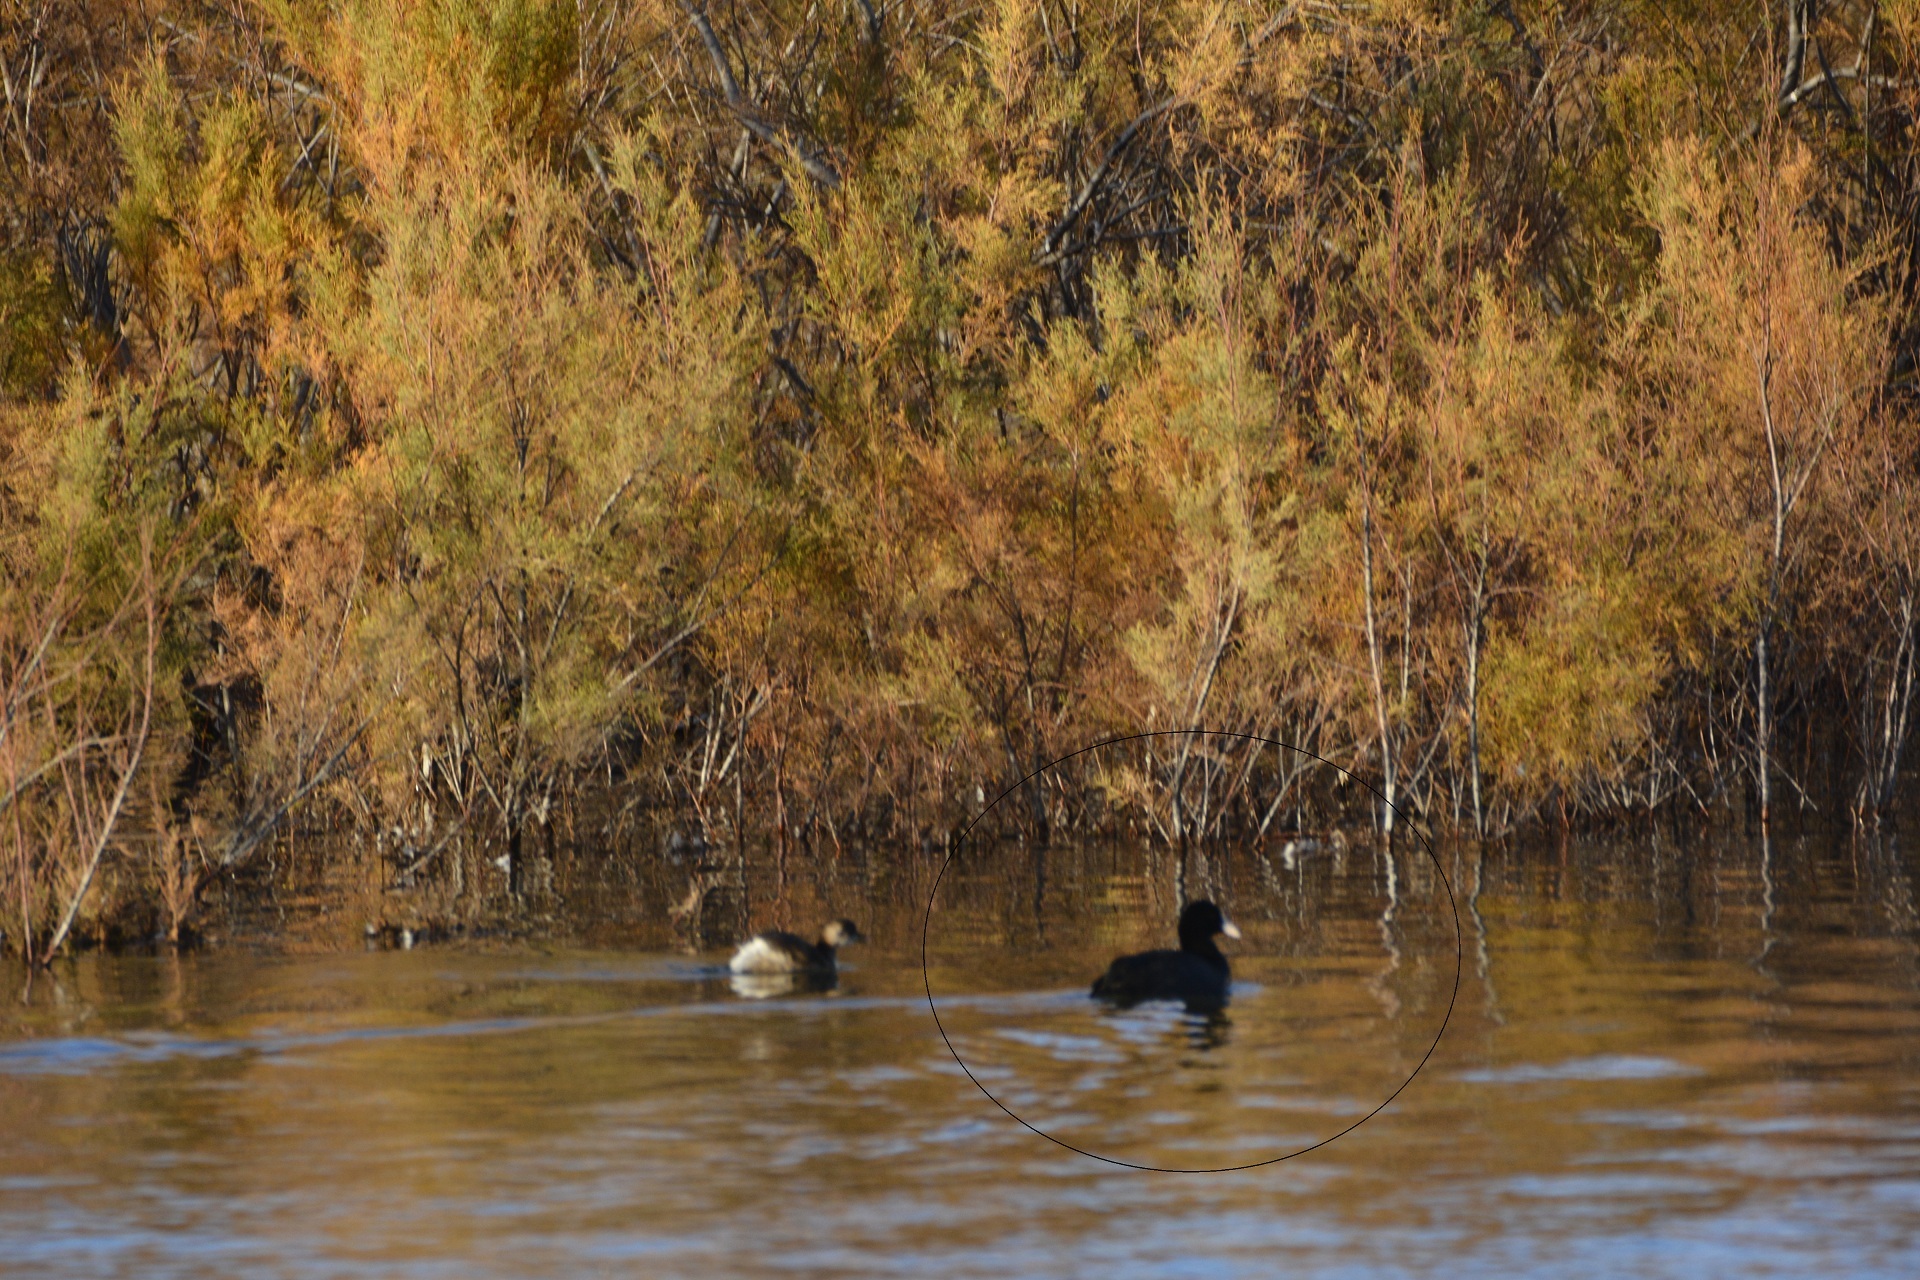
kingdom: Animalia
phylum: Chordata
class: Aves
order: Gruiformes
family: Rallidae
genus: Fulica
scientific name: Fulica atra
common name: Eurasian coot
